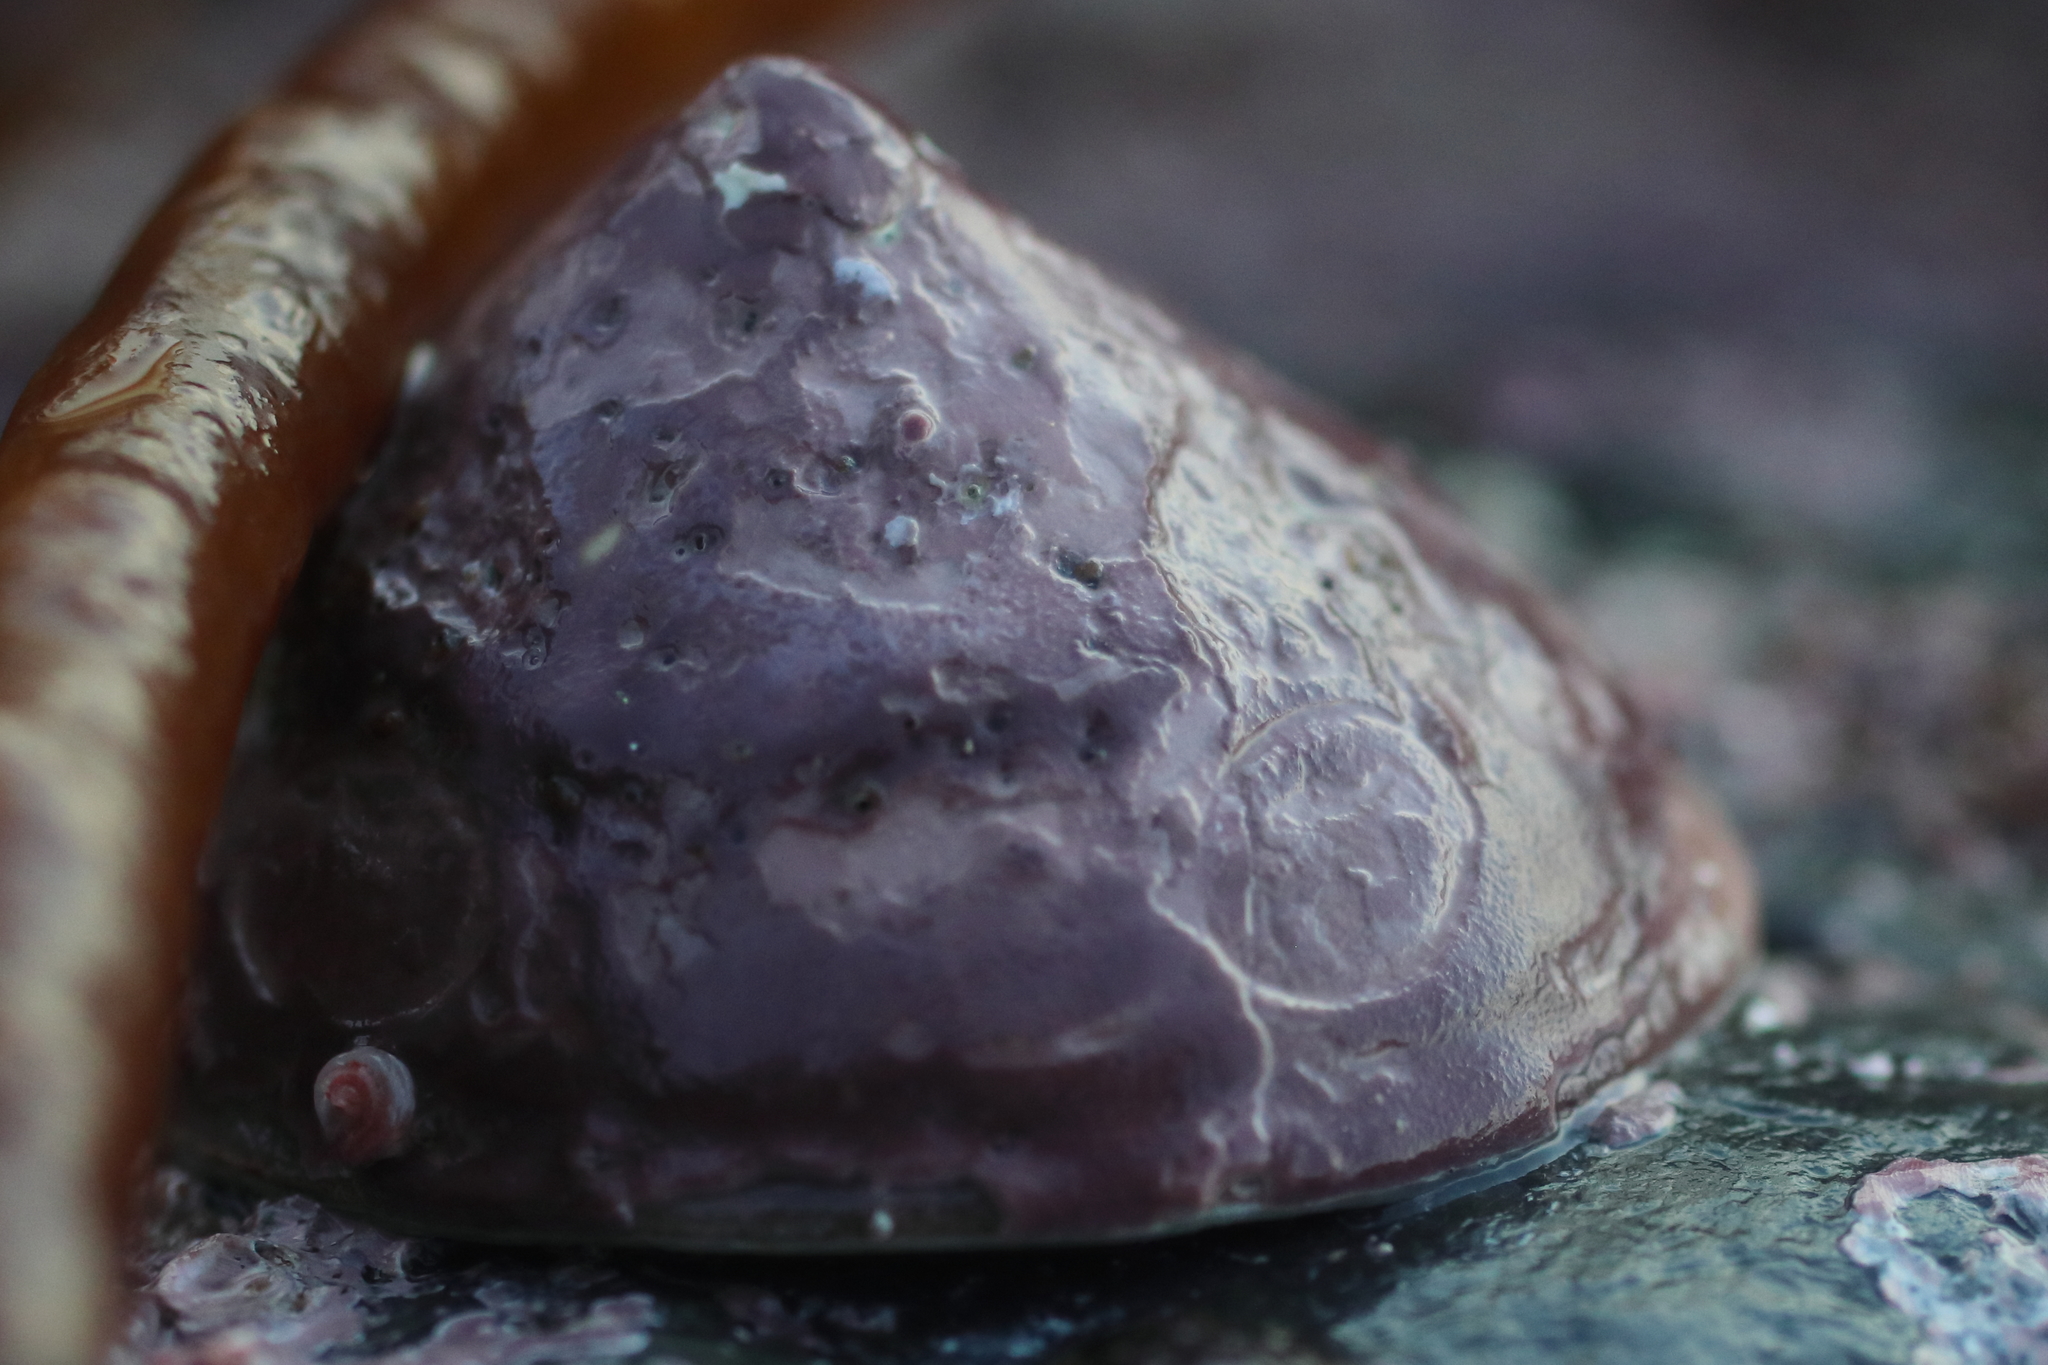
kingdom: Animalia
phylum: Mollusca
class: Gastropoda
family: Acmaeidae
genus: Acmaea
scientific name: Acmaea mitra
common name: Pacific white cap limpet
